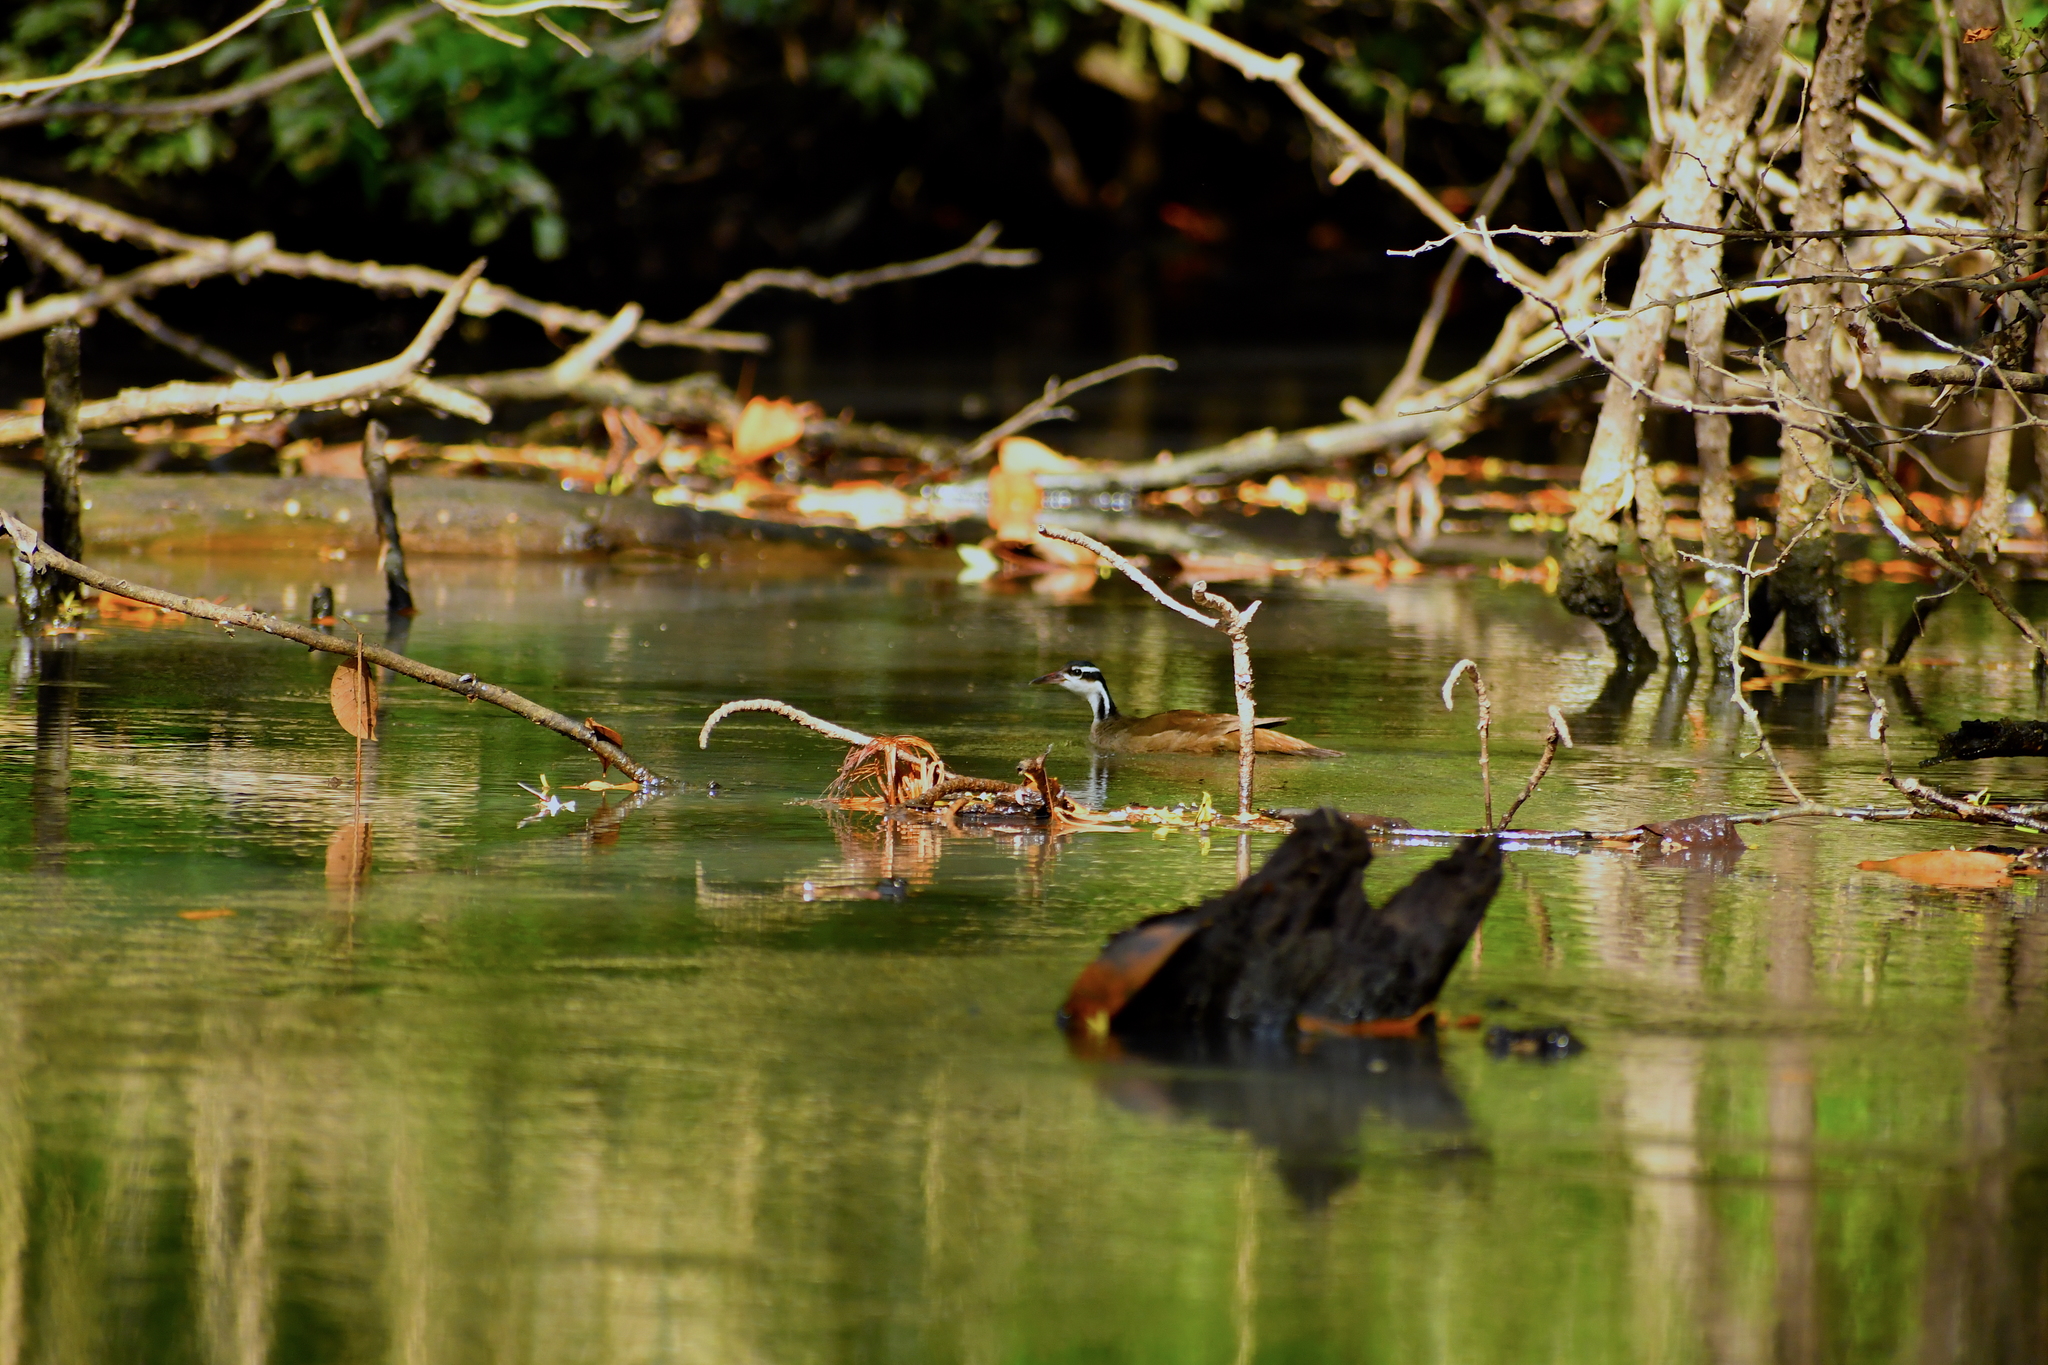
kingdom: Animalia
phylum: Chordata
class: Aves
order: Gruiformes
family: Heliornithidae
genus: Heliornis
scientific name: Heliornis fulica
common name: Sungrebe
